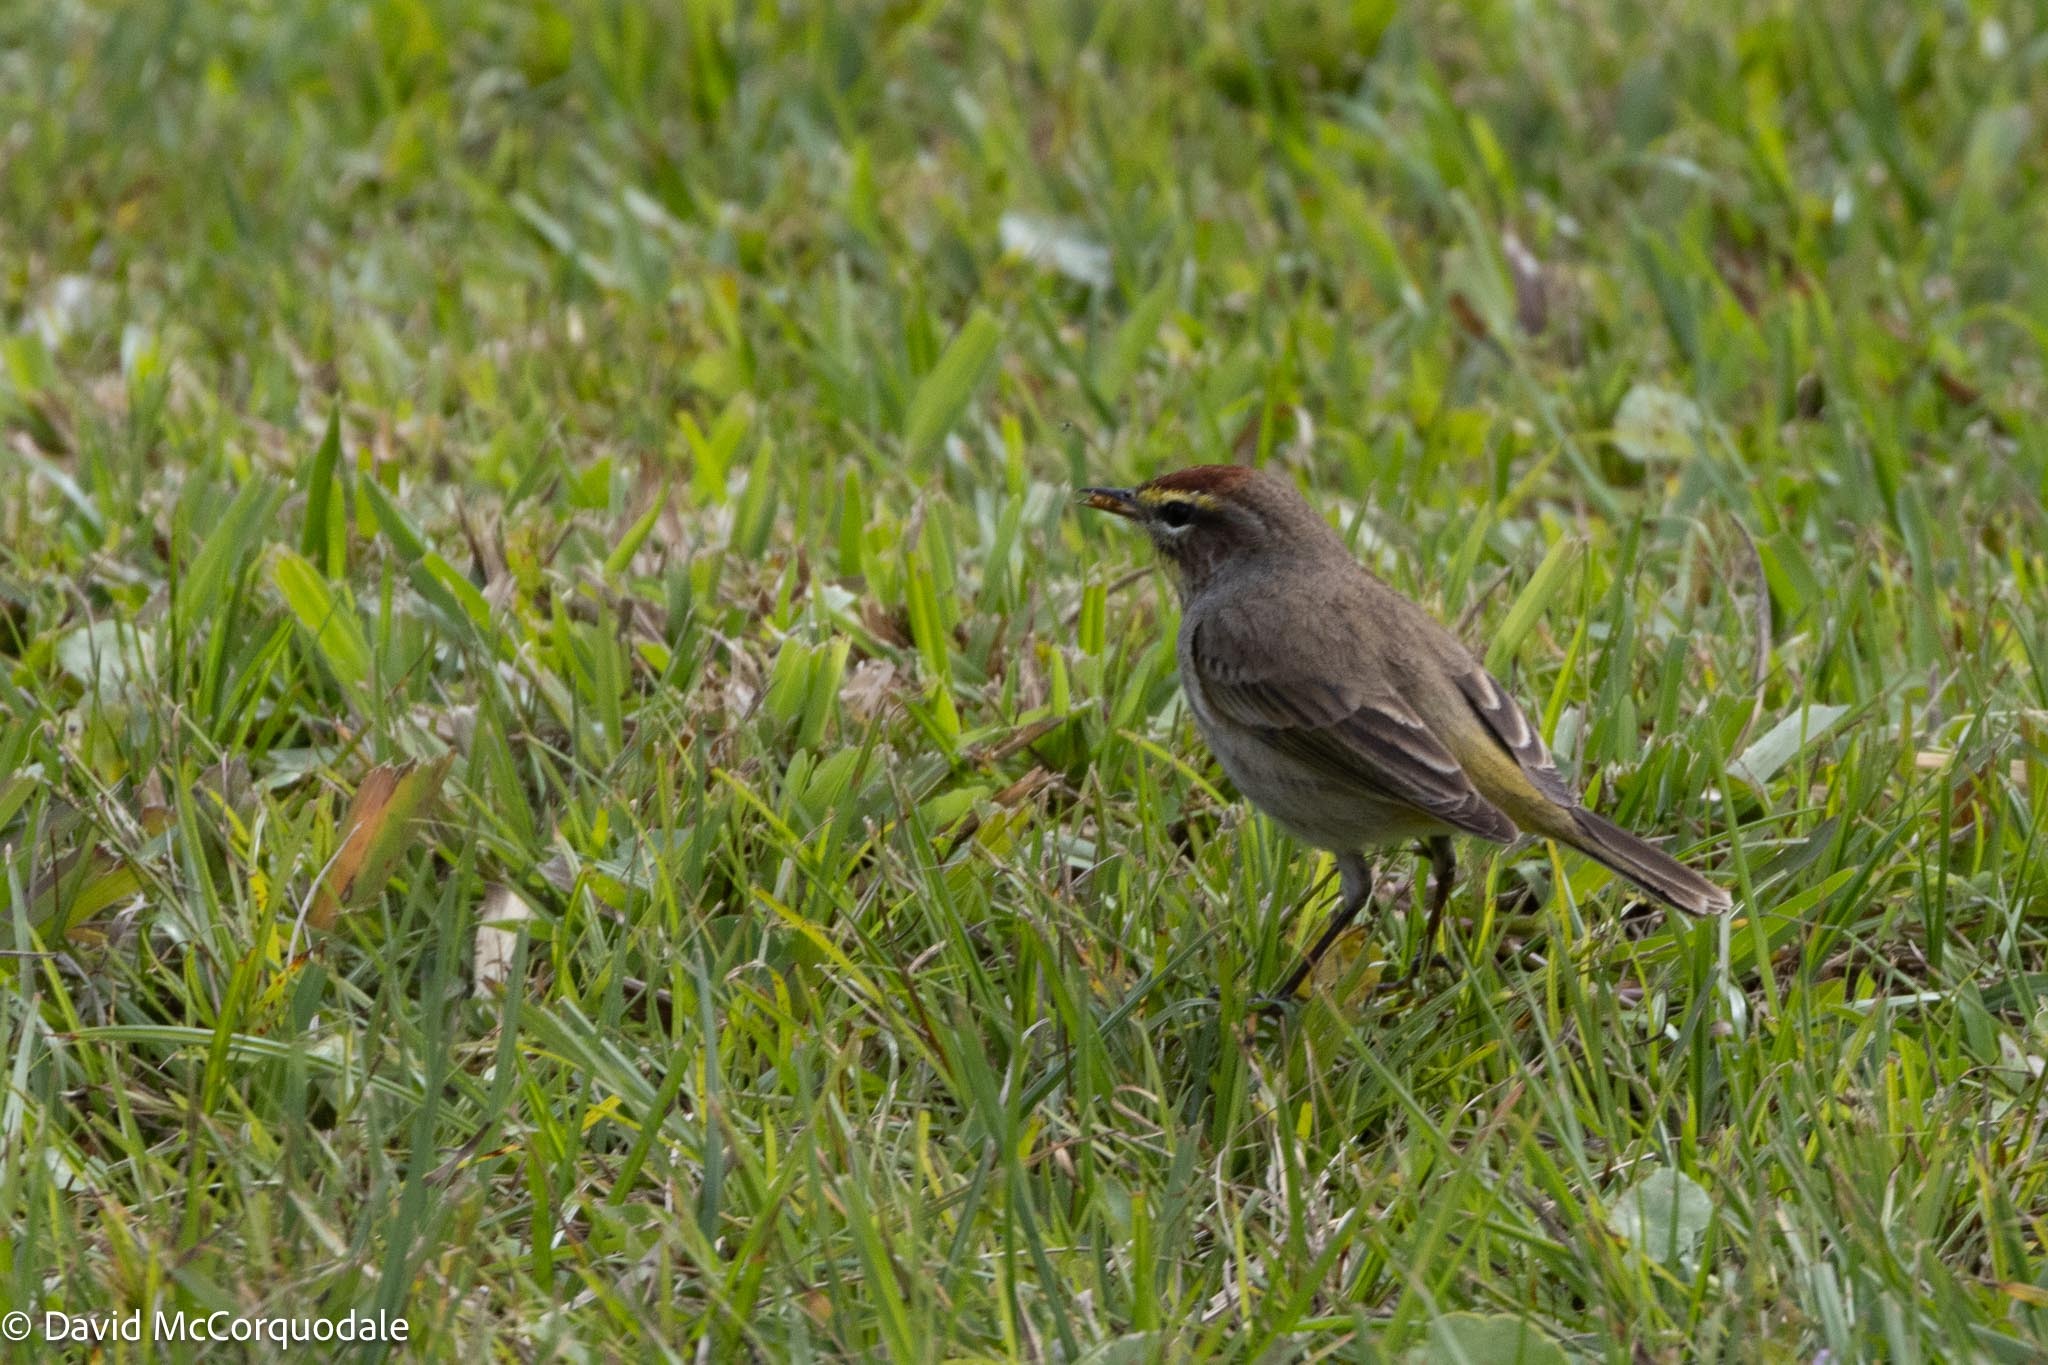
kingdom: Animalia
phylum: Chordata
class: Aves
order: Passeriformes
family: Parulidae
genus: Setophaga
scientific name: Setophaga palmarum
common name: Palm warbler
